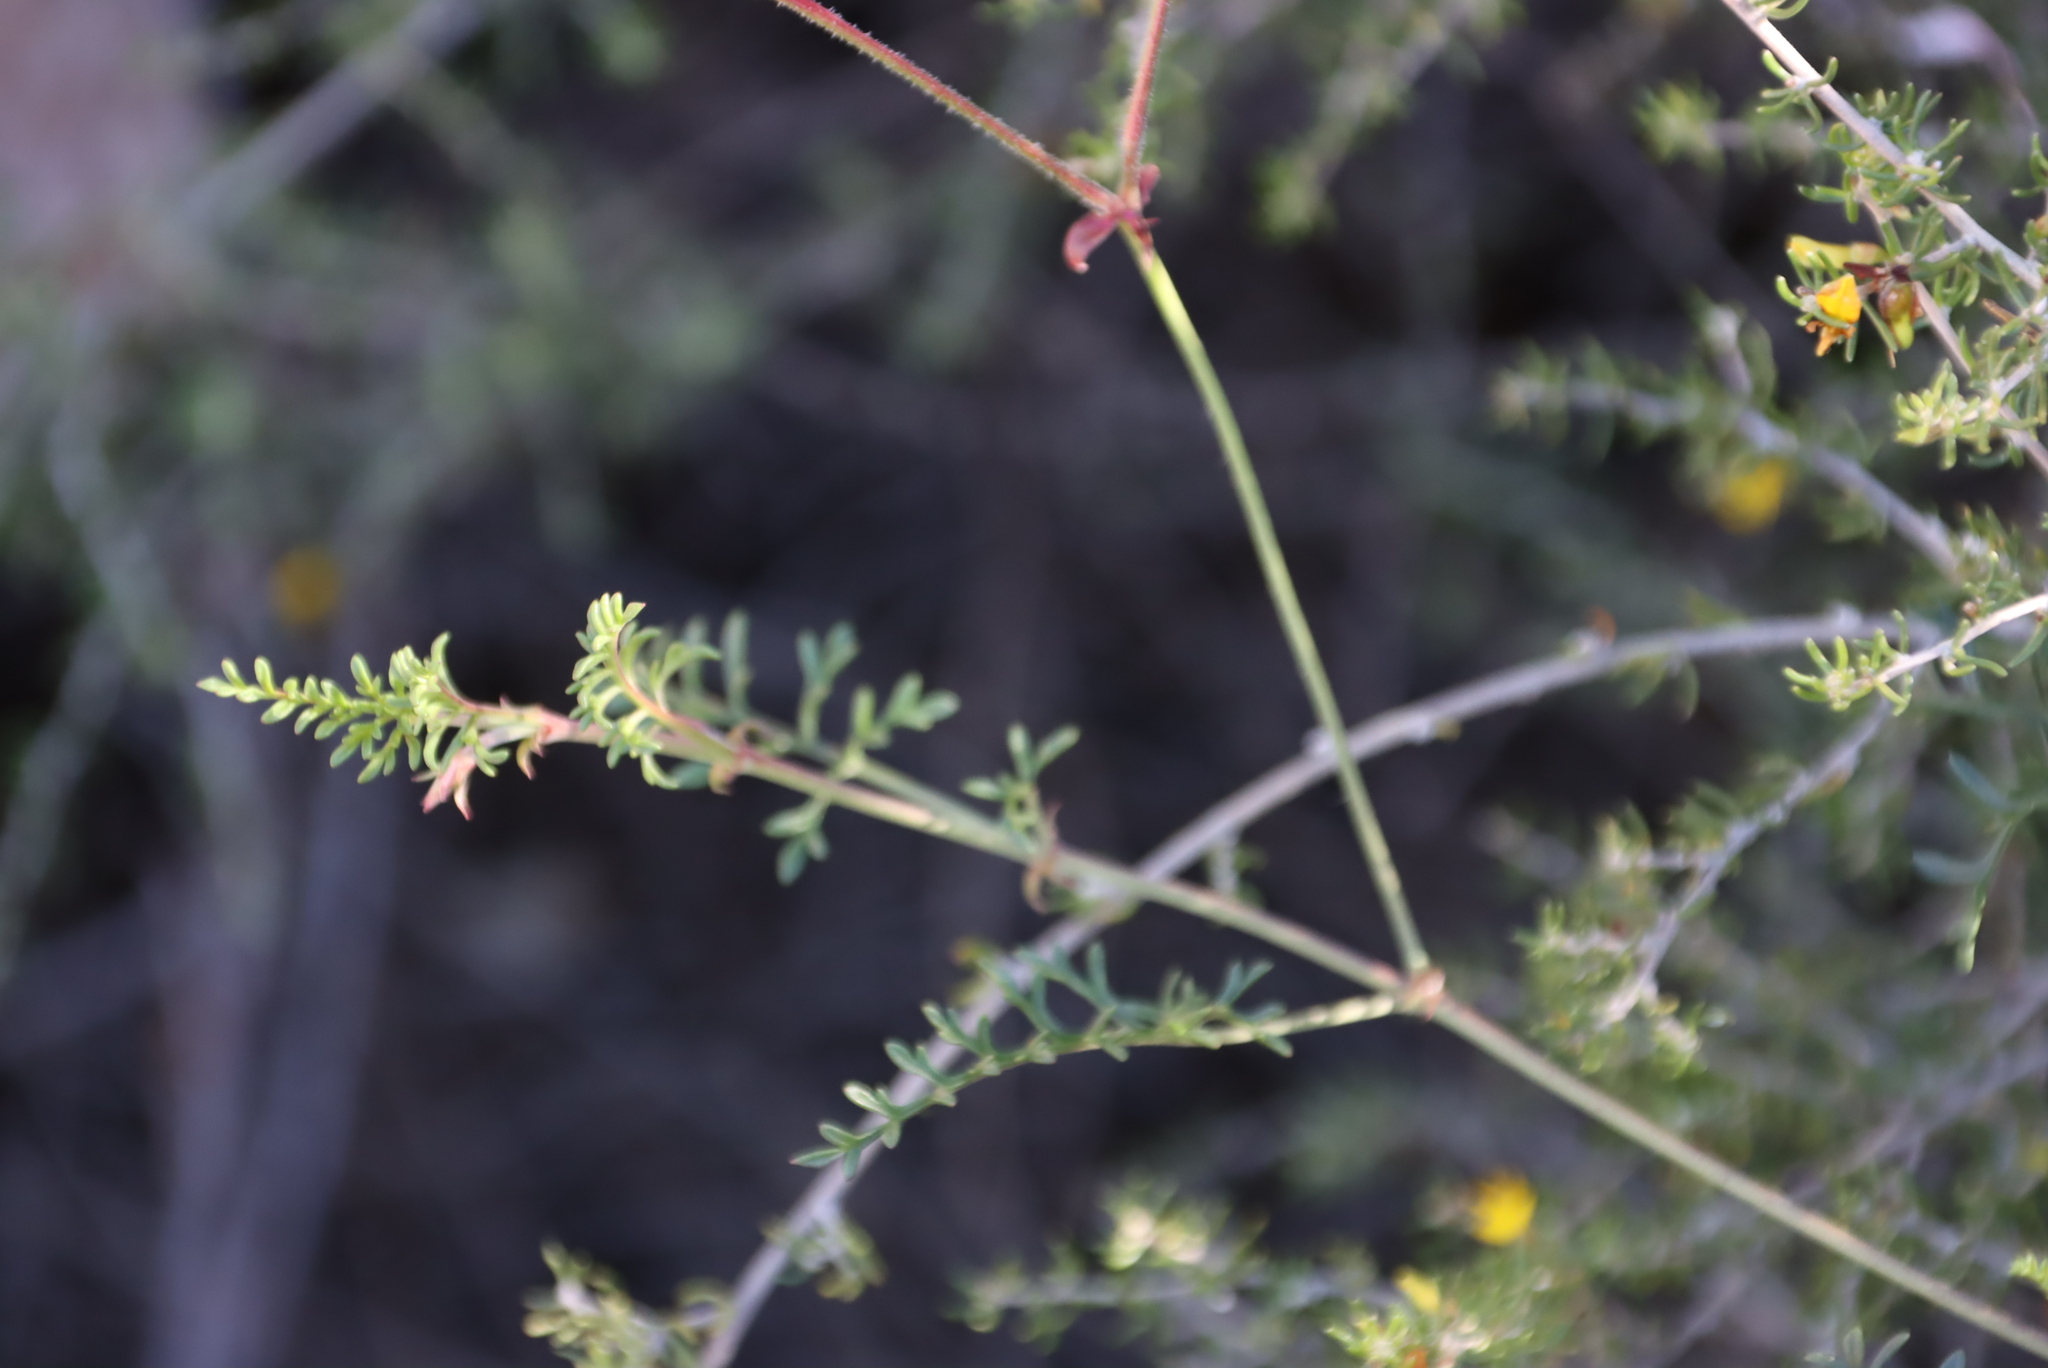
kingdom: Plantae
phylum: Tracheophyta
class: Magnoliopsida
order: Geraniales
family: Geraniaceae
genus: Pelargonium
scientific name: Pelargonium caucalifolium
